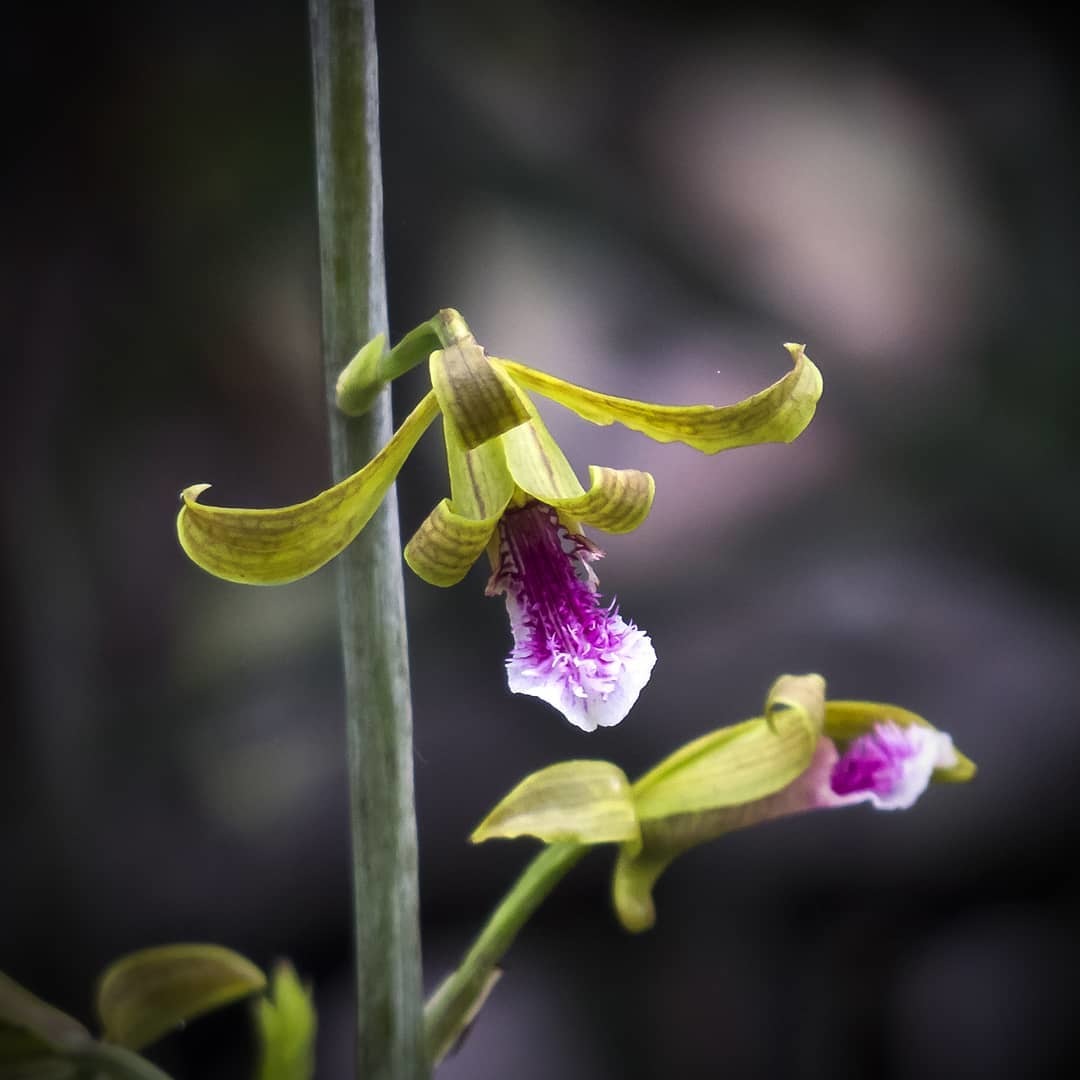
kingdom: Plantae
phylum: Tracheophyta
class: Liliopsida
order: Asparagales
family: Orchidaceae
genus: Eulophia
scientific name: Eulophia epidendraea
